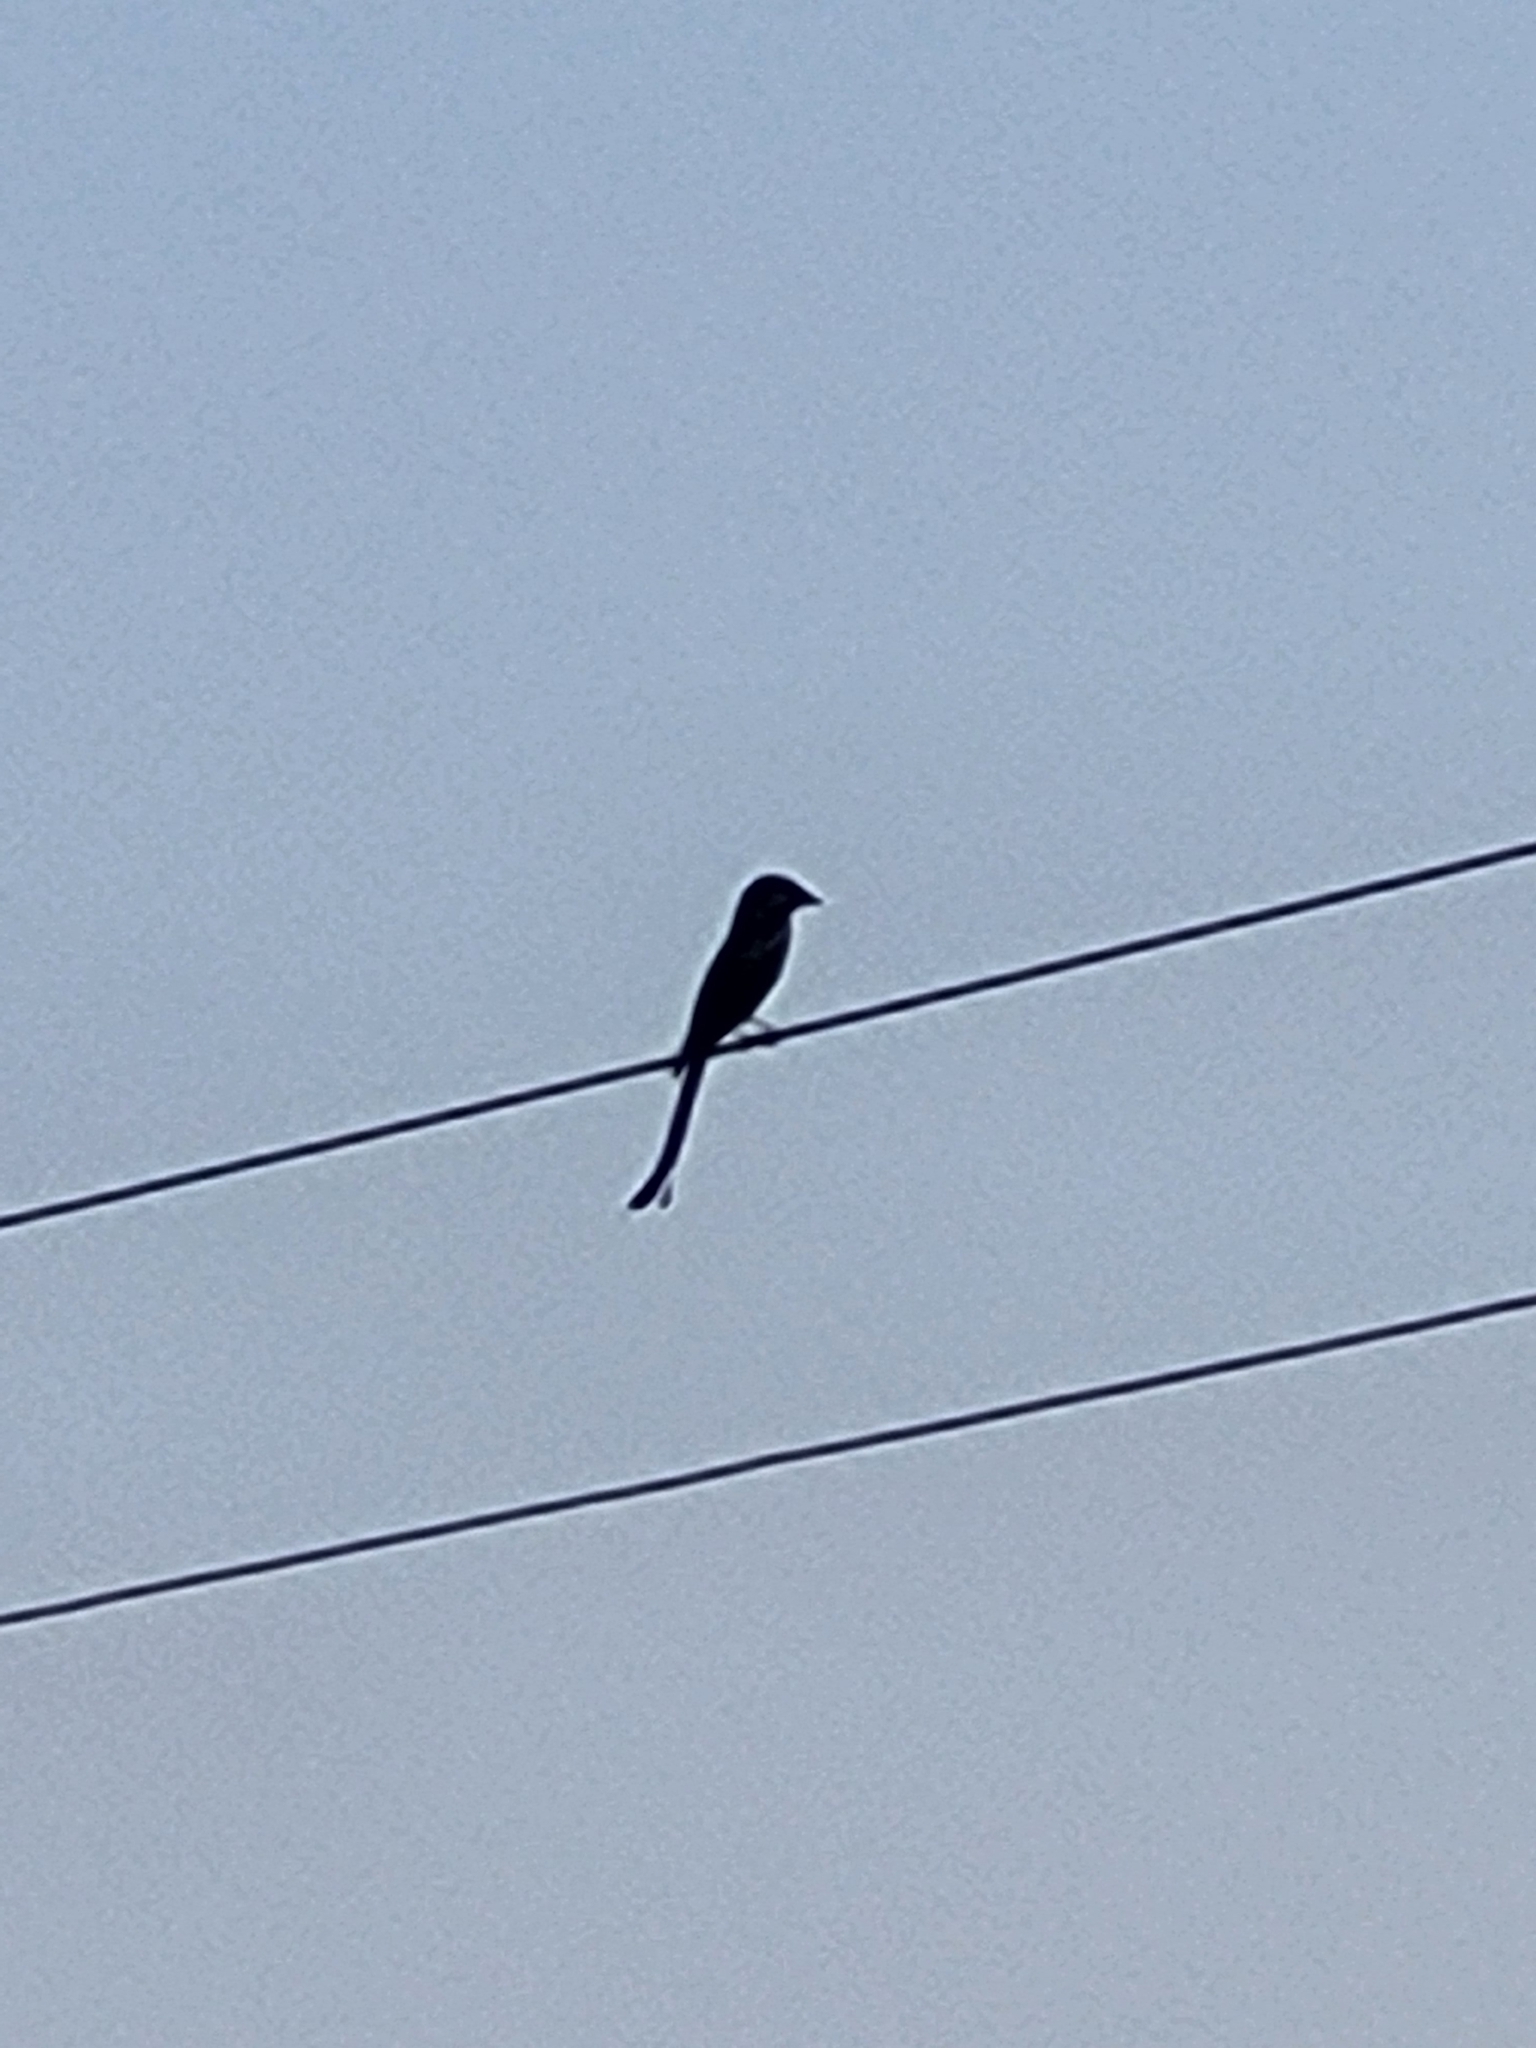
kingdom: Animalia
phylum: Chordata
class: Aves
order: Passeriformes
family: Dicruridae
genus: Dicrurus
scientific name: Dicrurus macrocercus
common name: Black drongo
